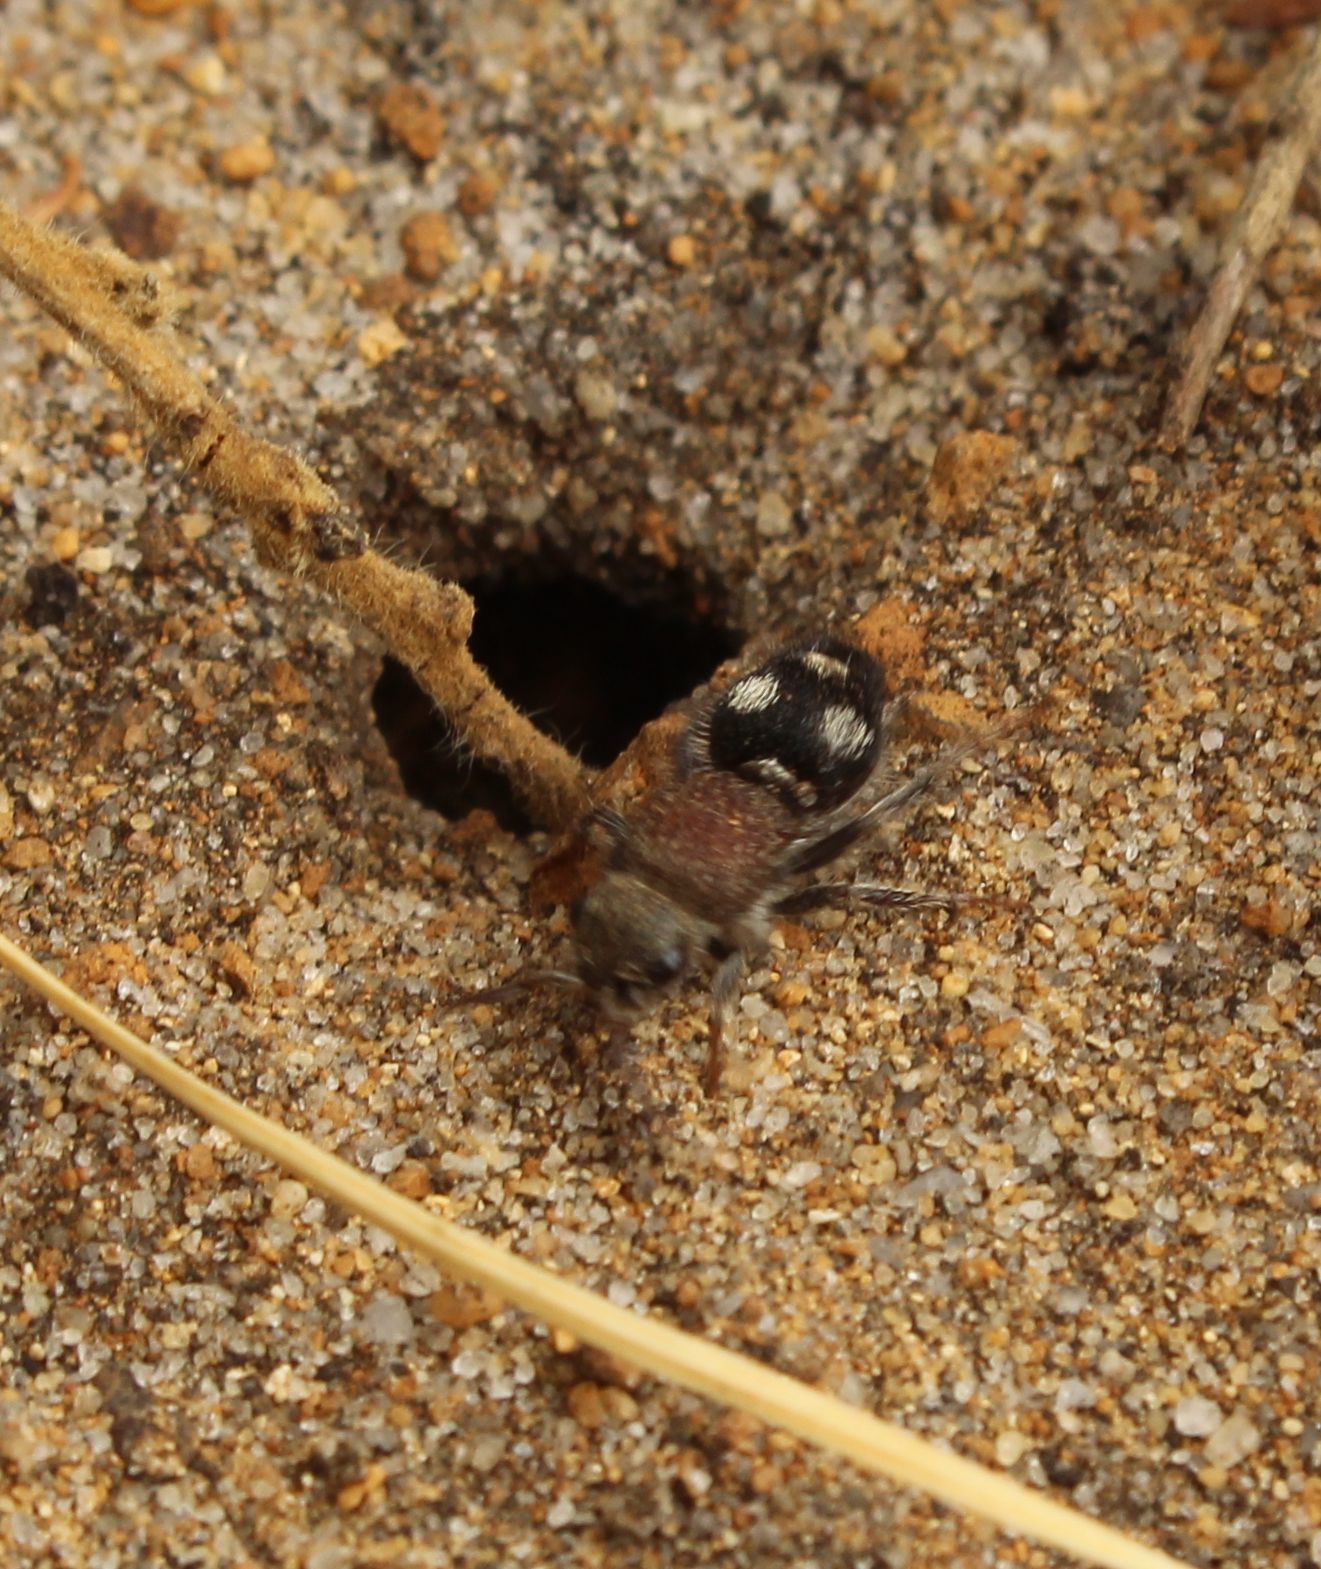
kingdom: Animalia
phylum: Arthropoda
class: Insecta
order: Hymenoptera
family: Mutillidae
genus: Ephutomorpha
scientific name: Ephutomorpha
